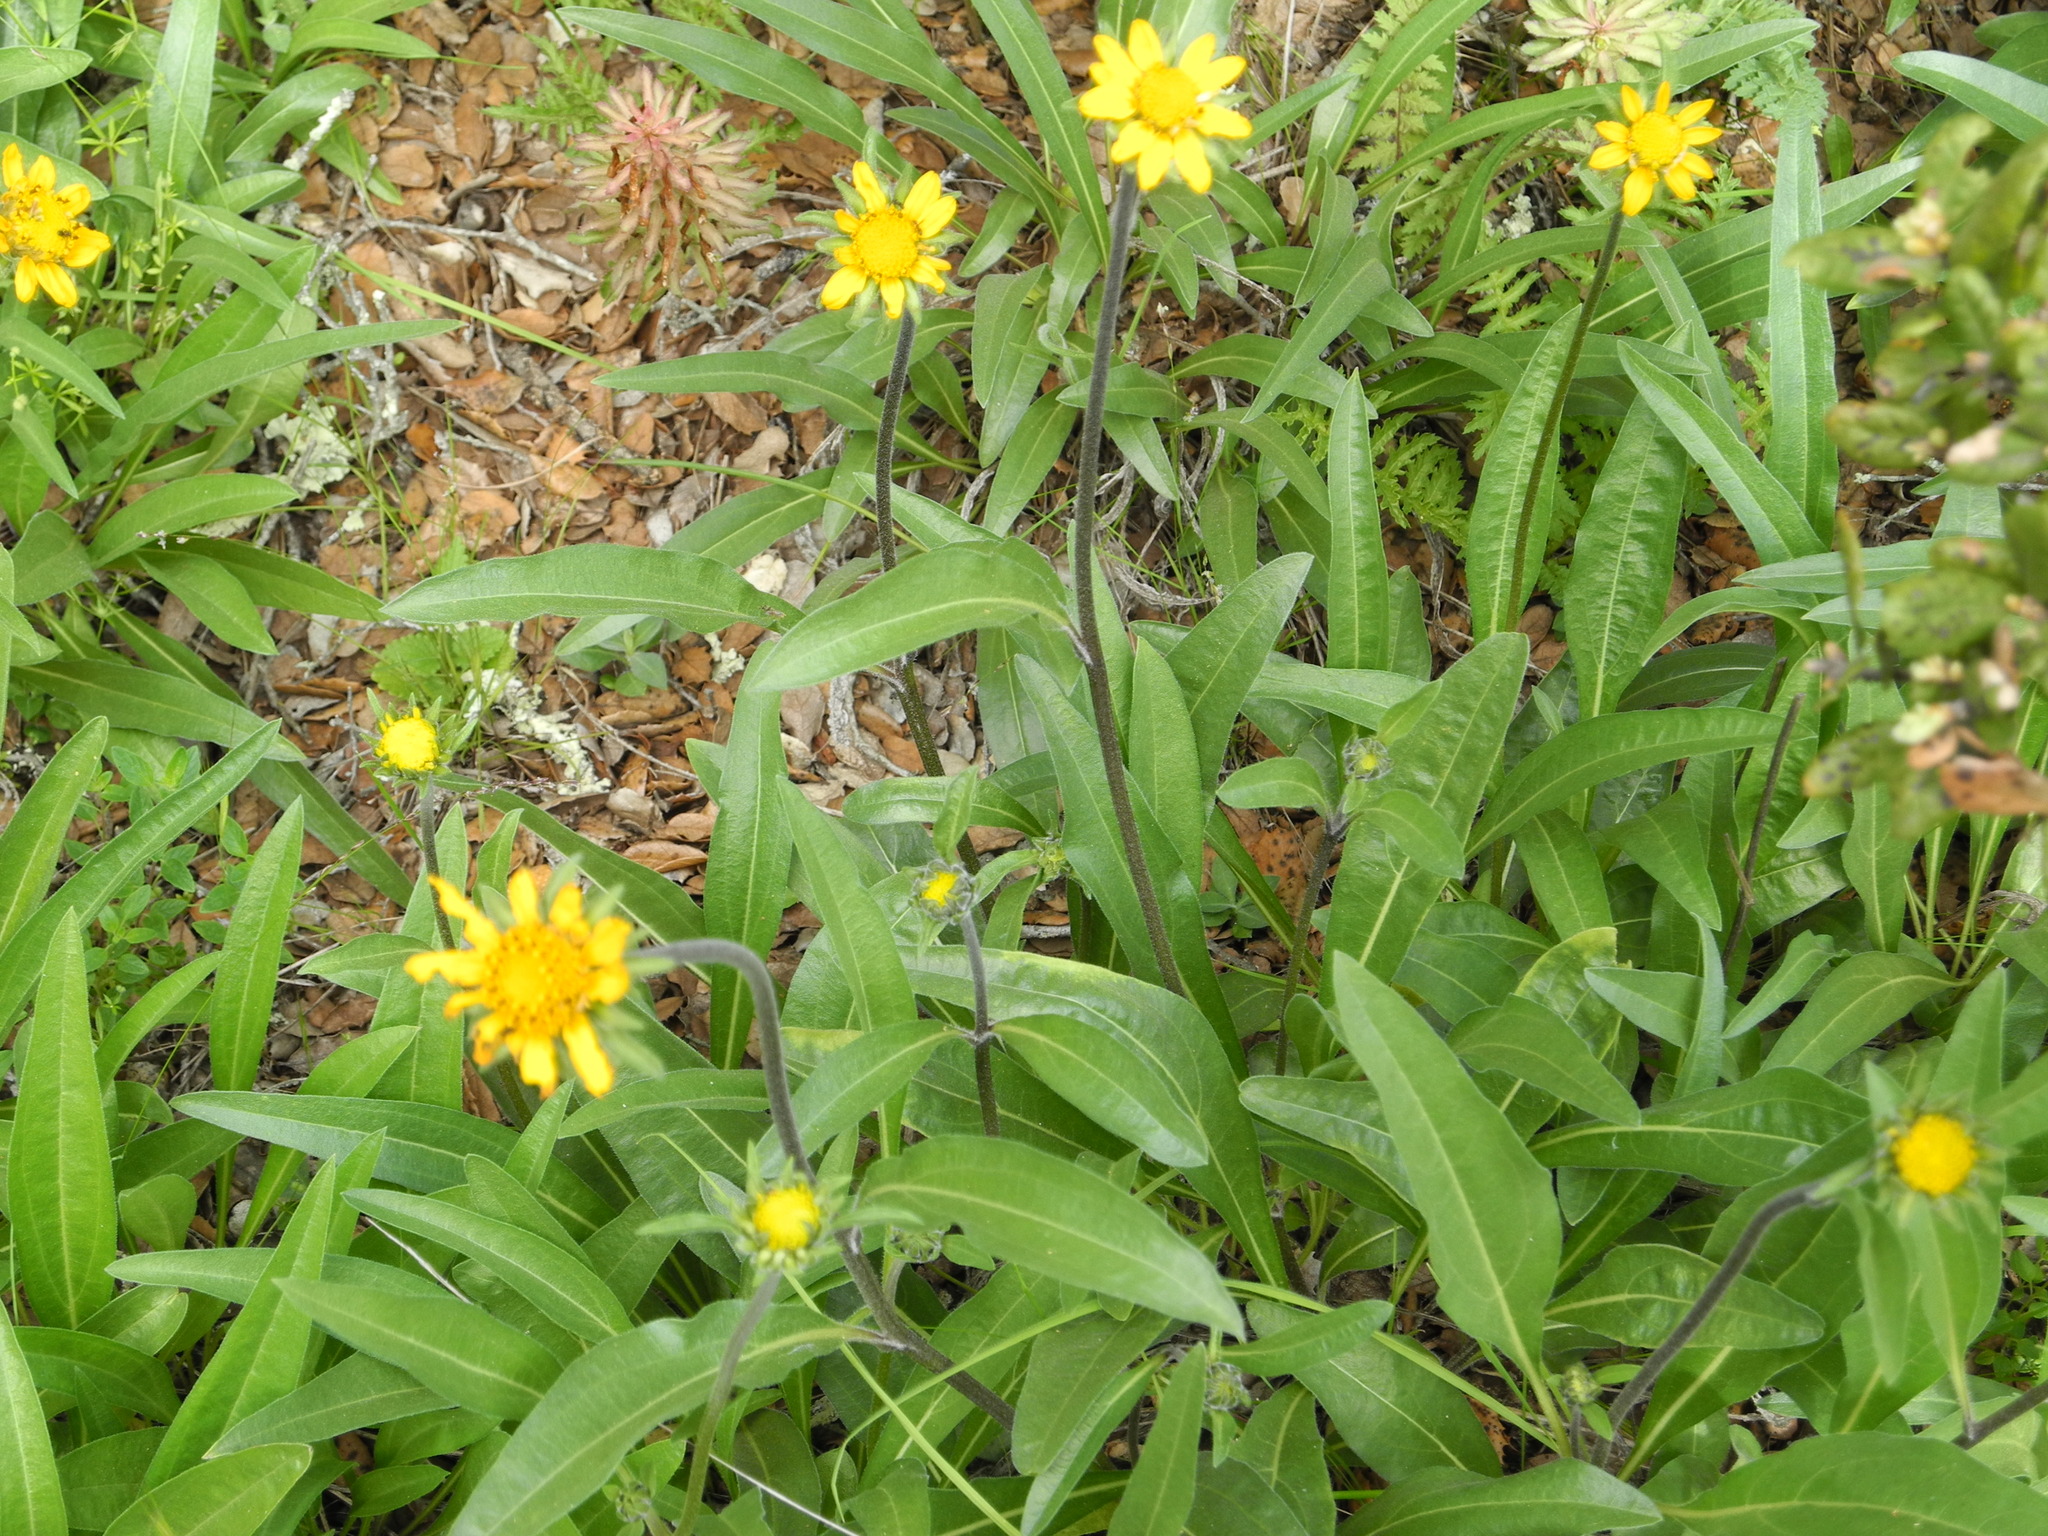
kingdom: Plantae
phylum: Tracheophyta
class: Magnoliopsida
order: Asterales
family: Asteraceae
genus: Wyethia
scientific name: Wyethia angustifolia
